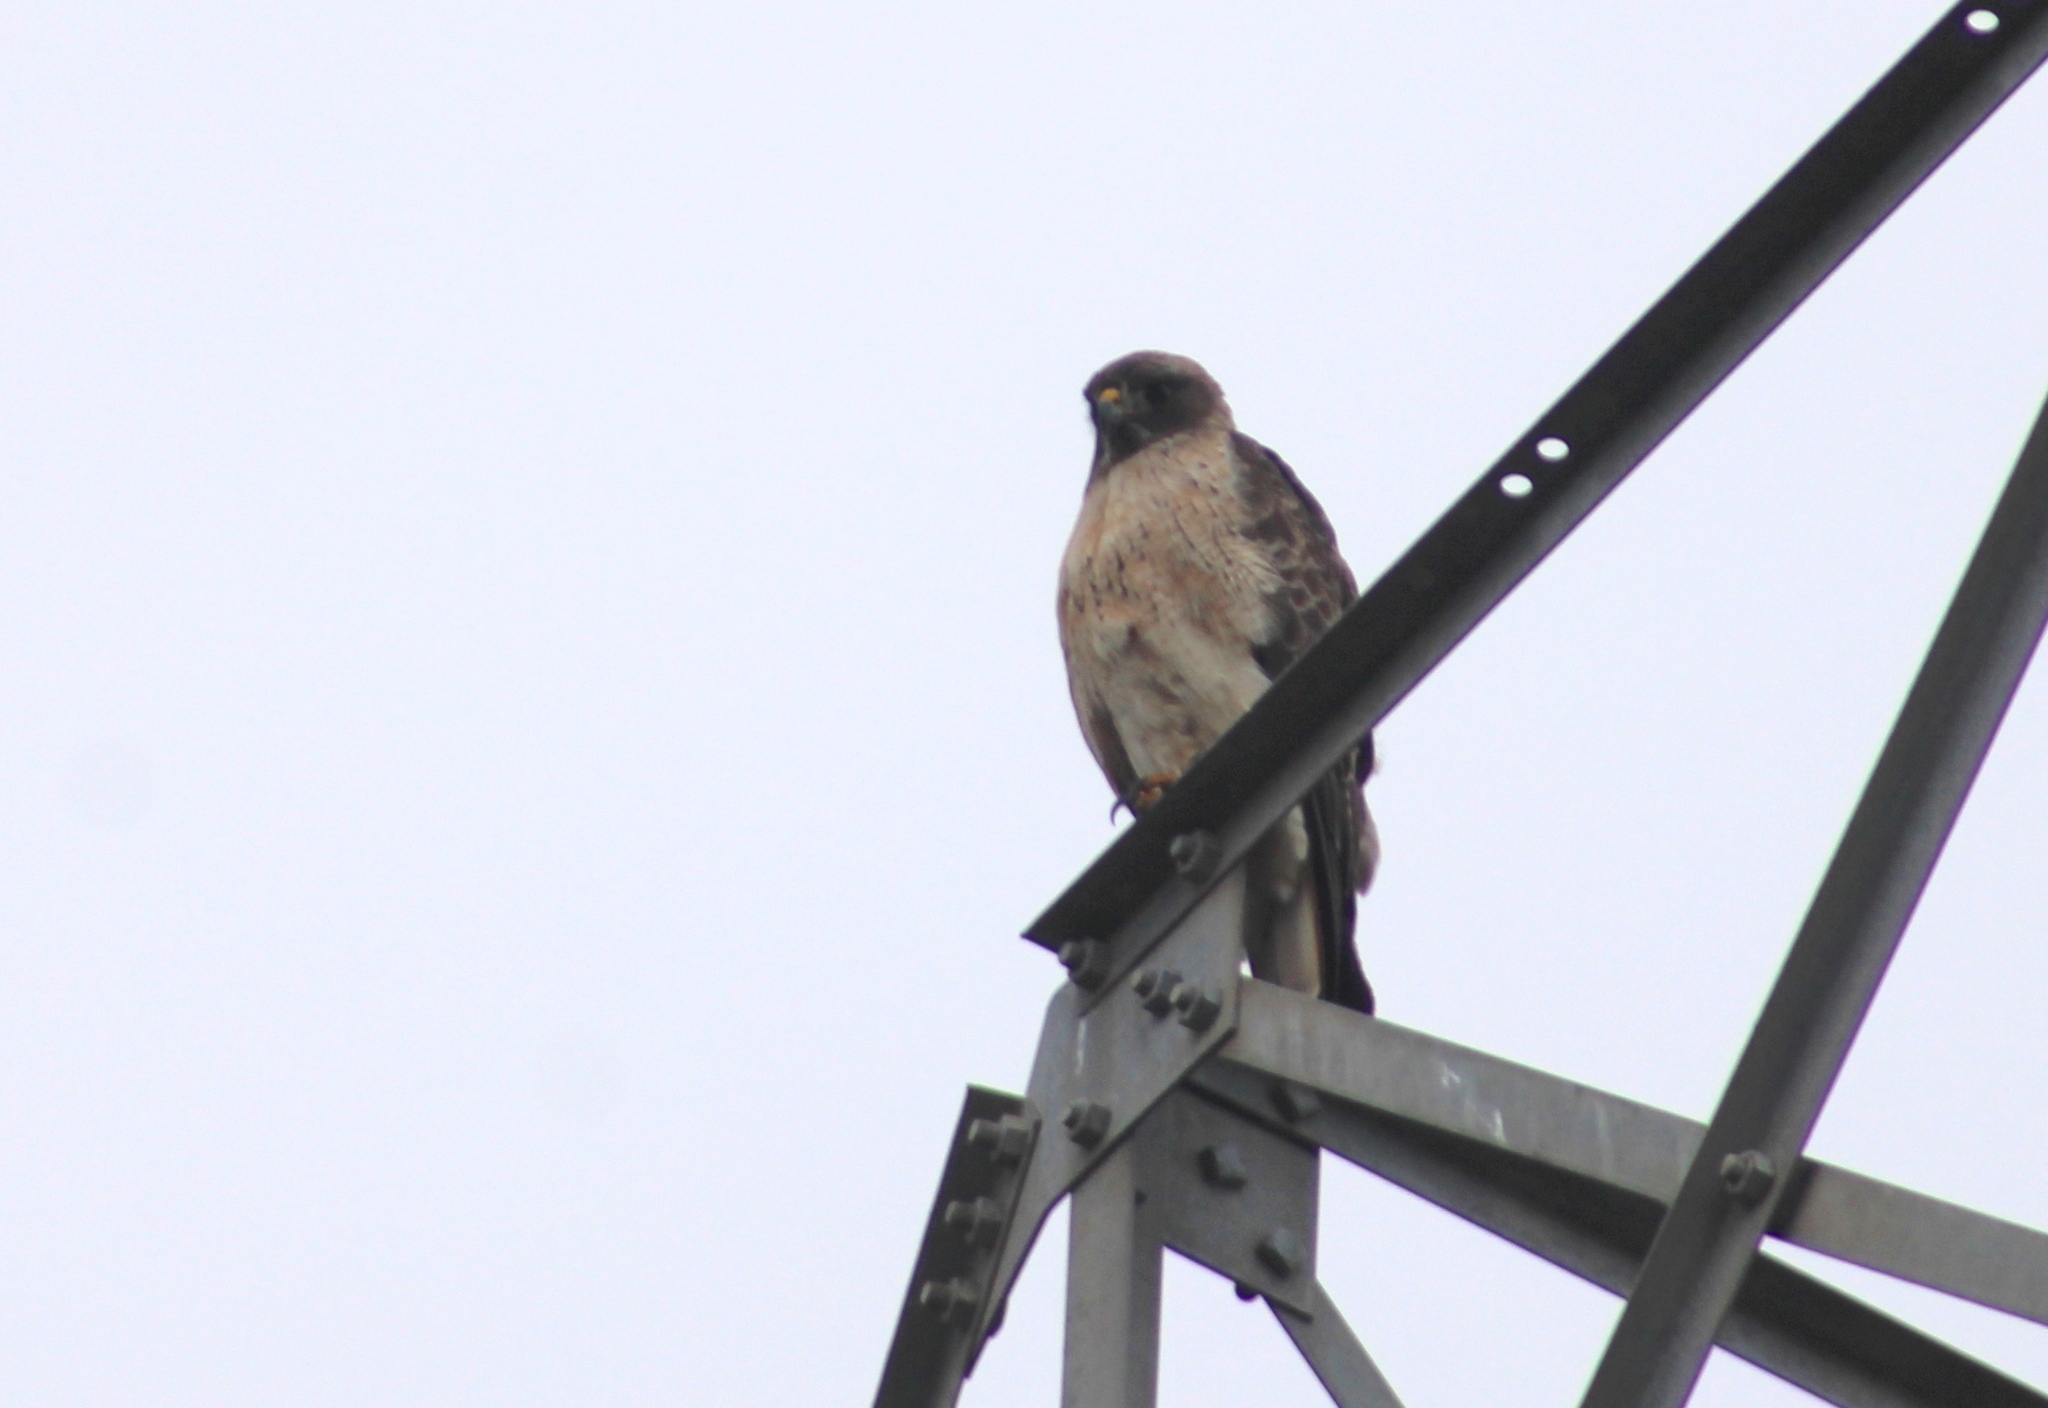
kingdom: Animalia
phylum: Chordata
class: Aves
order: Accipitriformes
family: Accipitridae
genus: Buteo
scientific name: Buteo jamaicensis
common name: Red-tailed hawk
